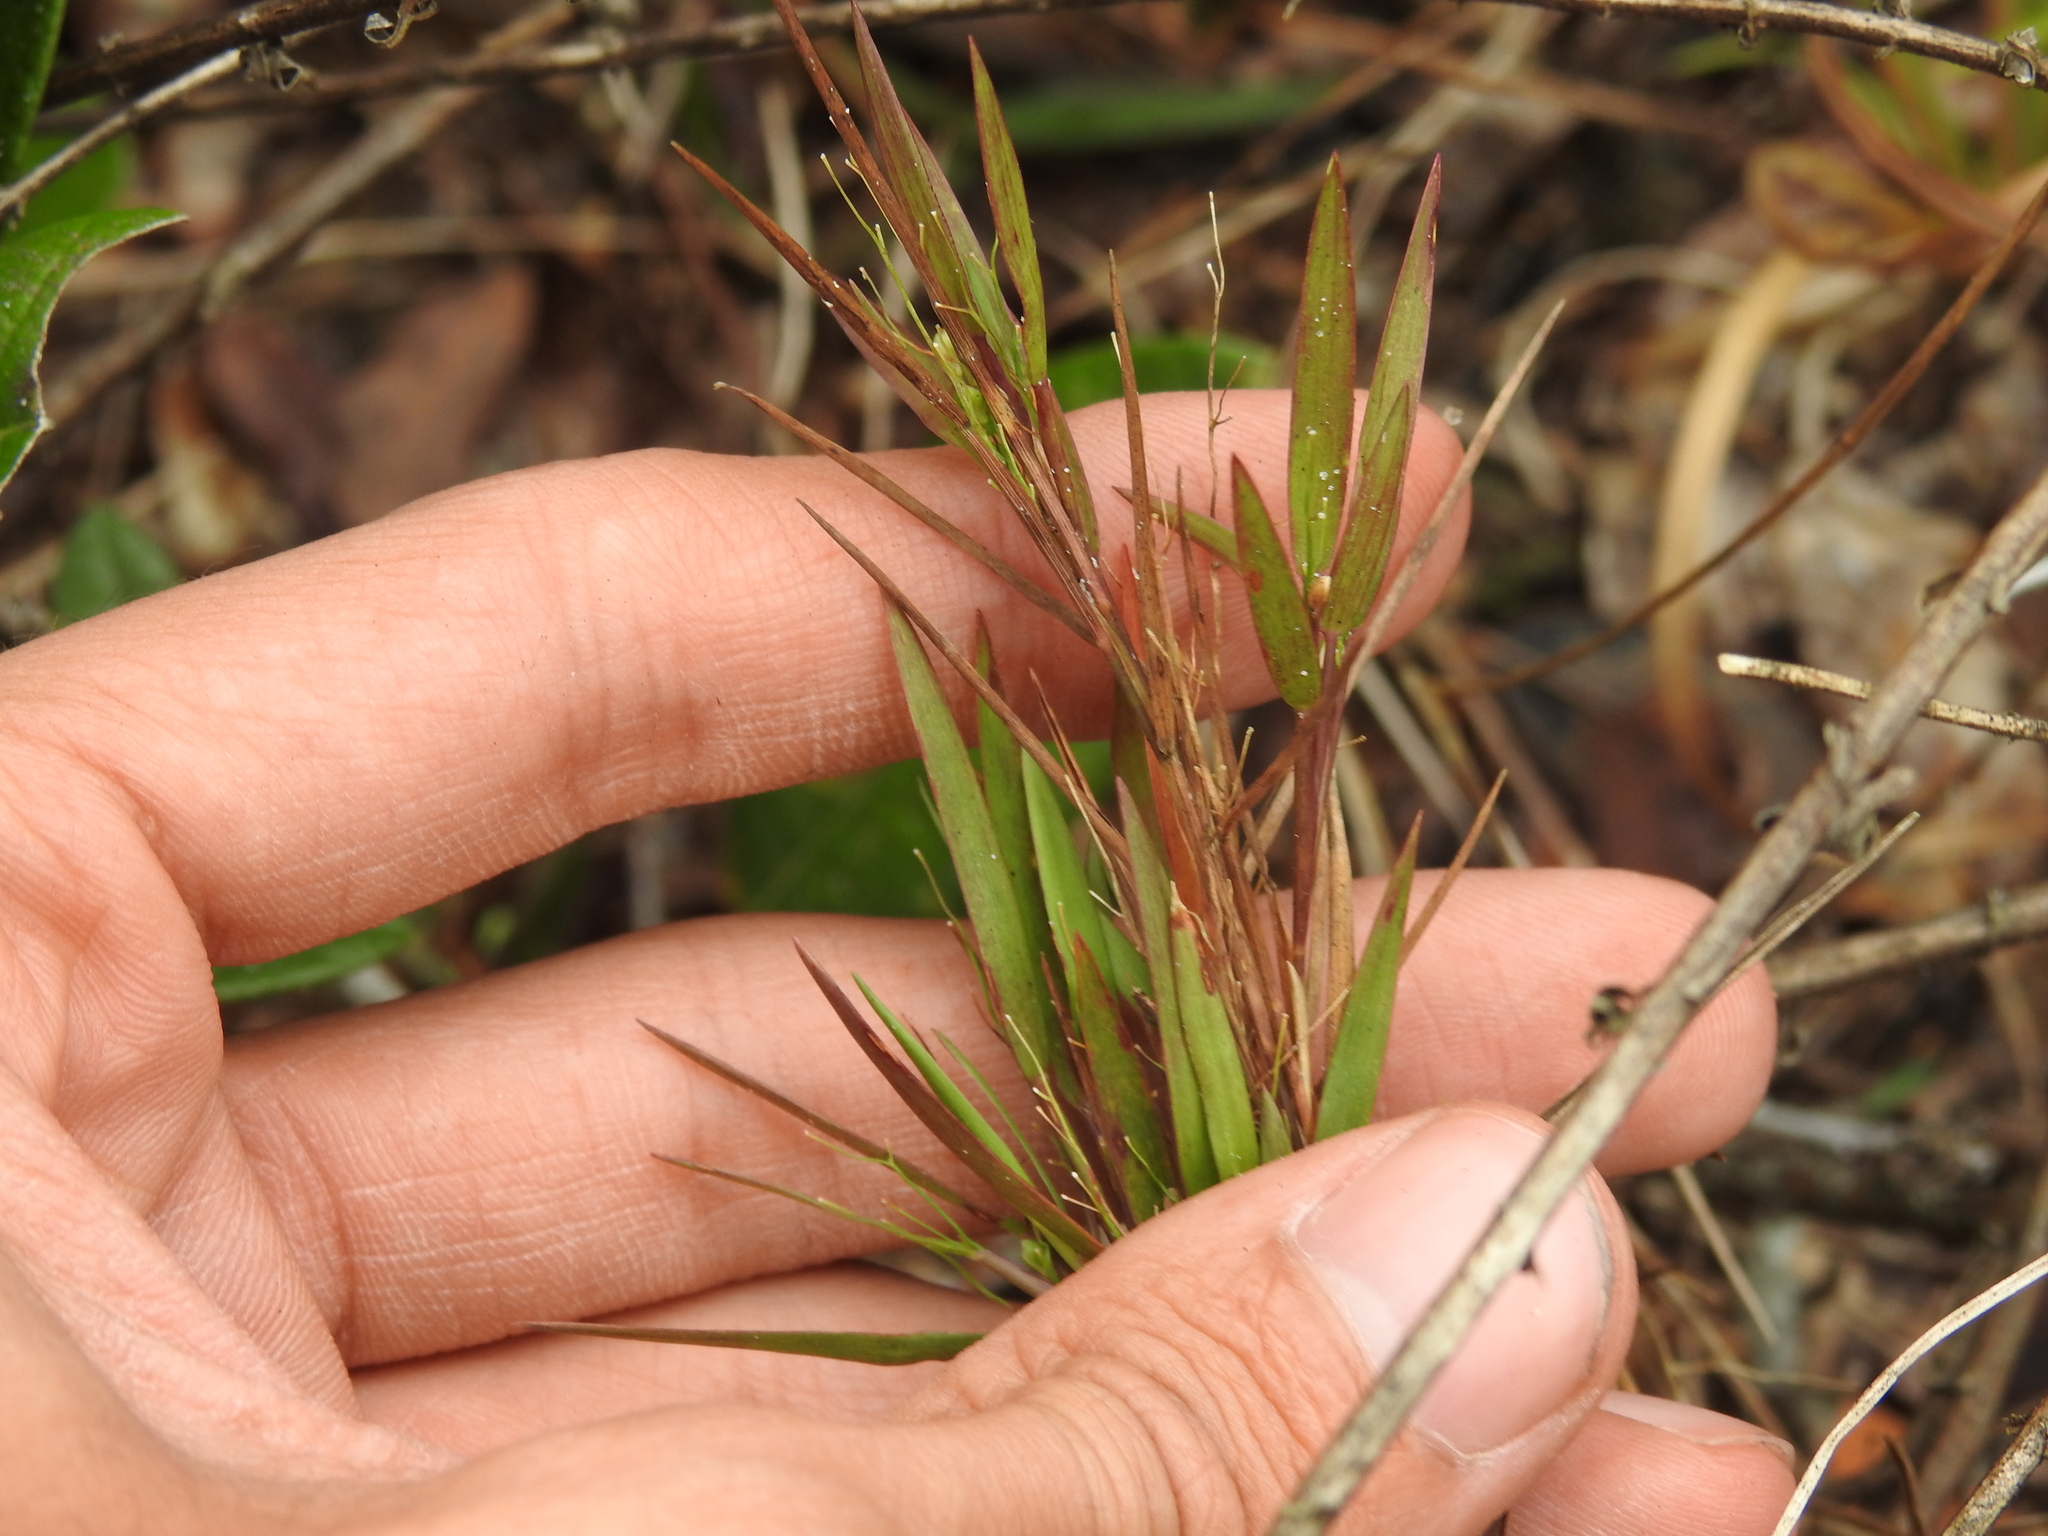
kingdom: Plantae
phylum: Tracheophyta
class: Liliopsida
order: Poales
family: Poaceae
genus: Dichanthelium
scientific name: Dichanthelium chamaelonche
